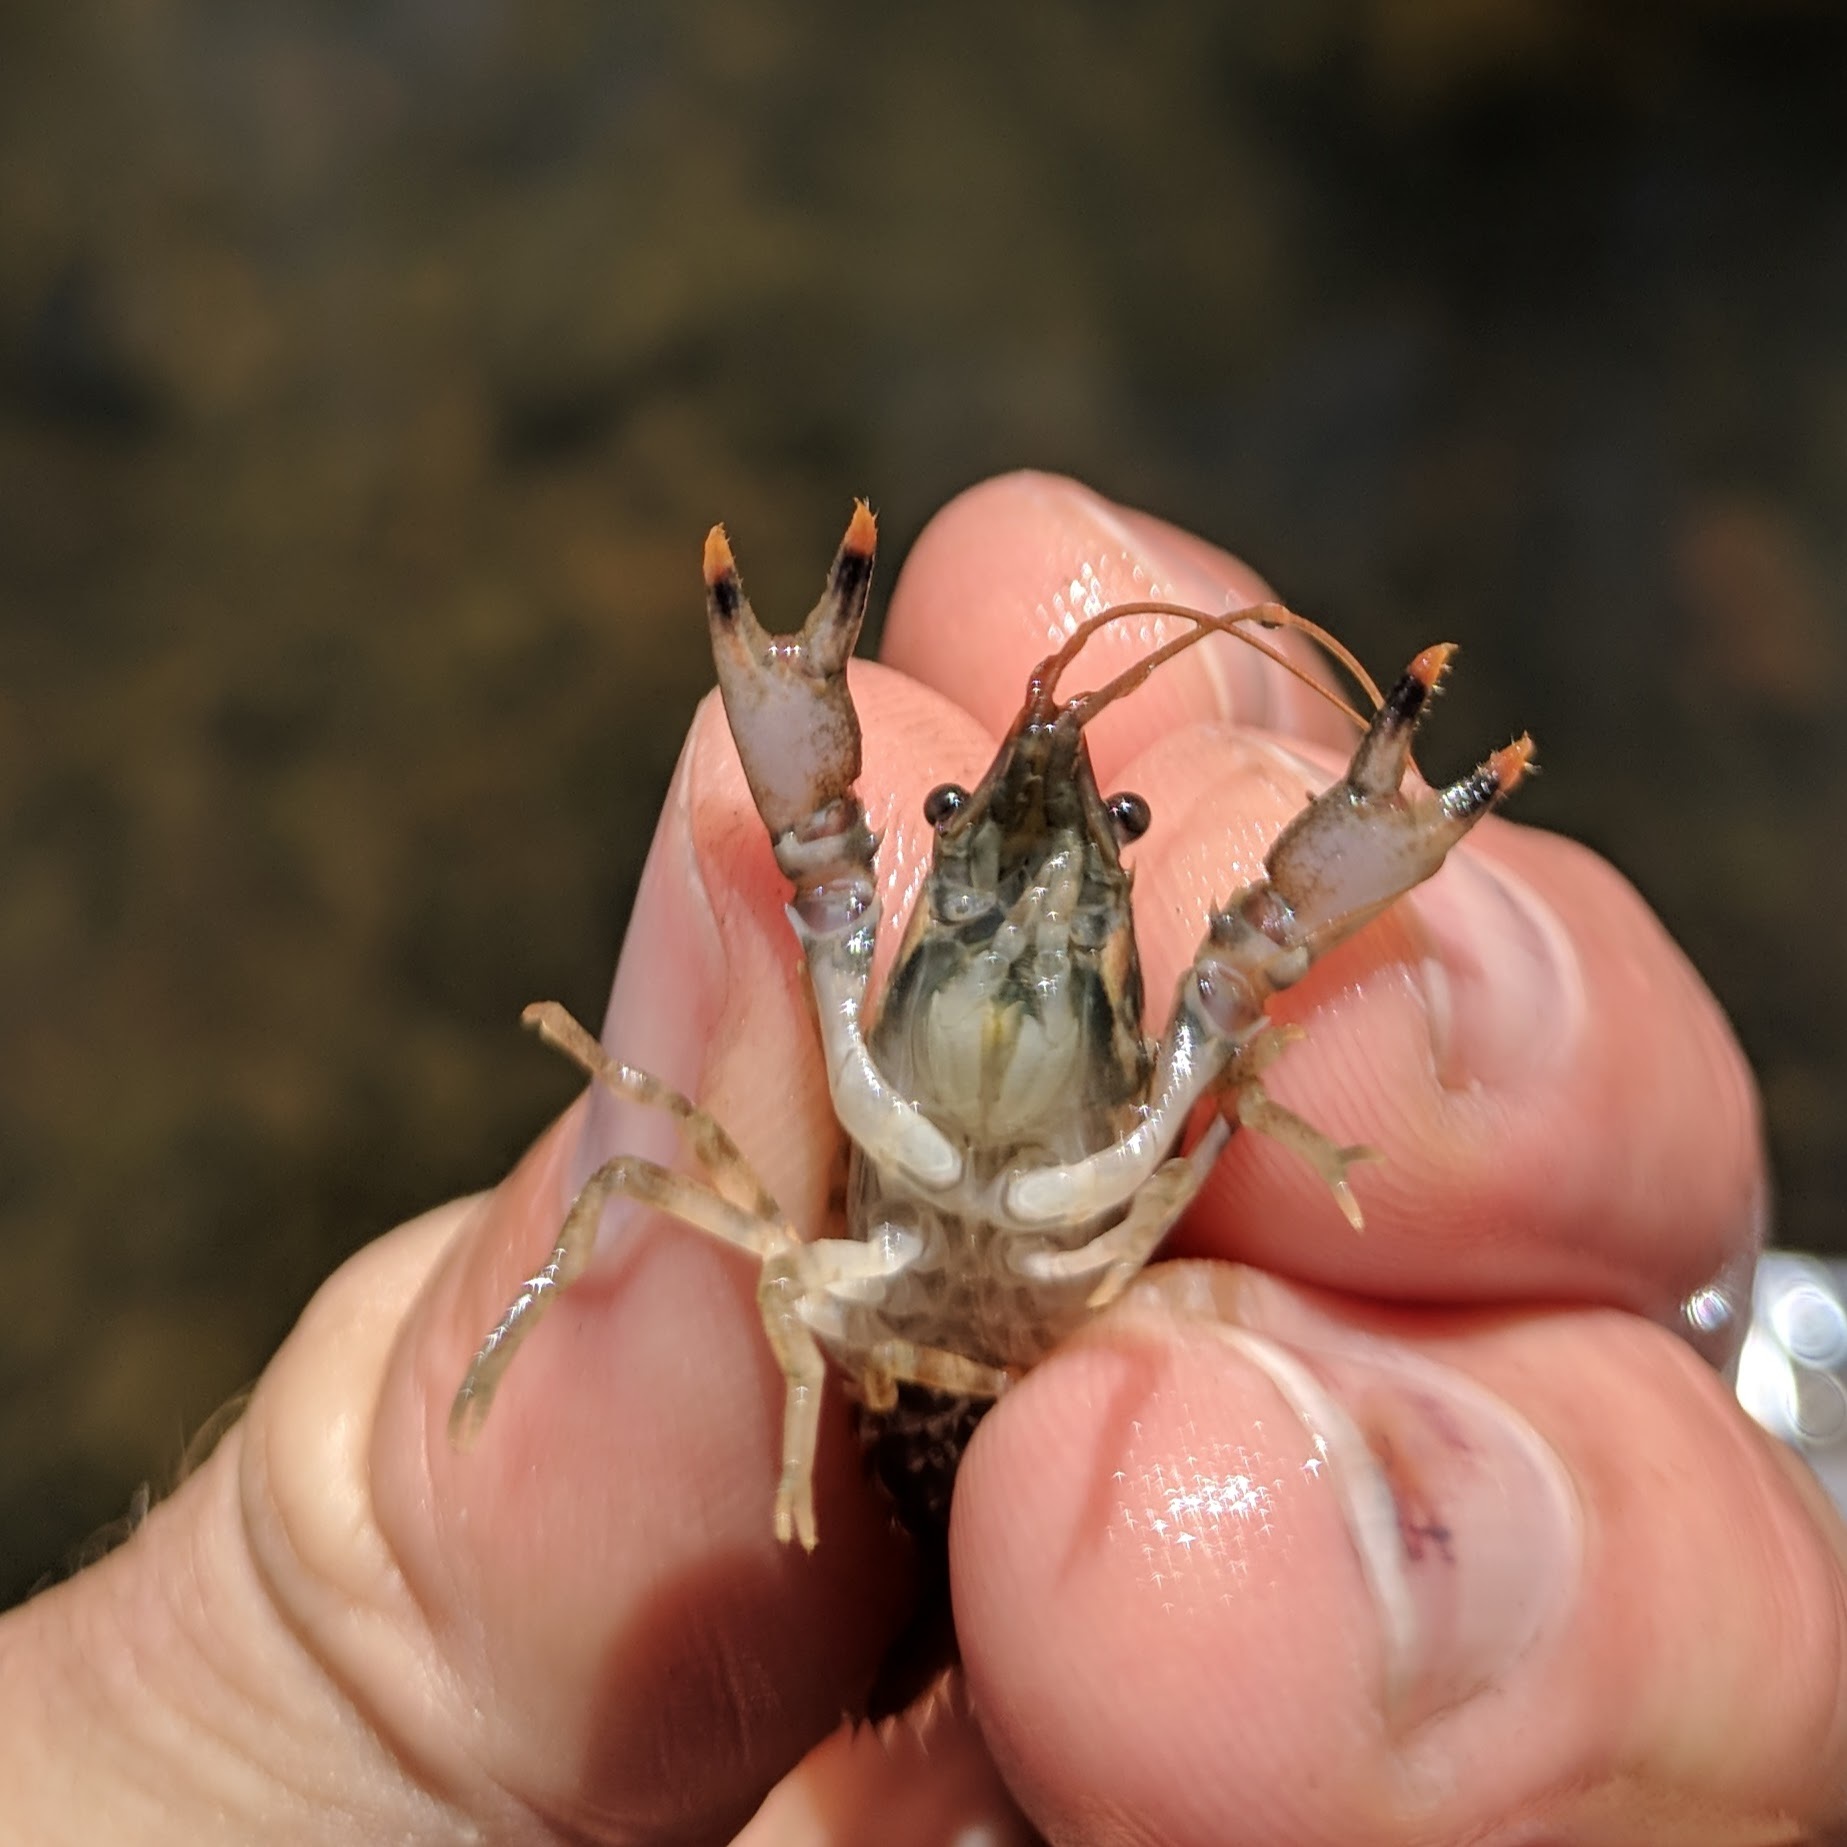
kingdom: Animalia
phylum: Arthropoda
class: Malacostraca
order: Decapoda
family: Cambaridae
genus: Faxonius
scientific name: Faxonius neglectus
